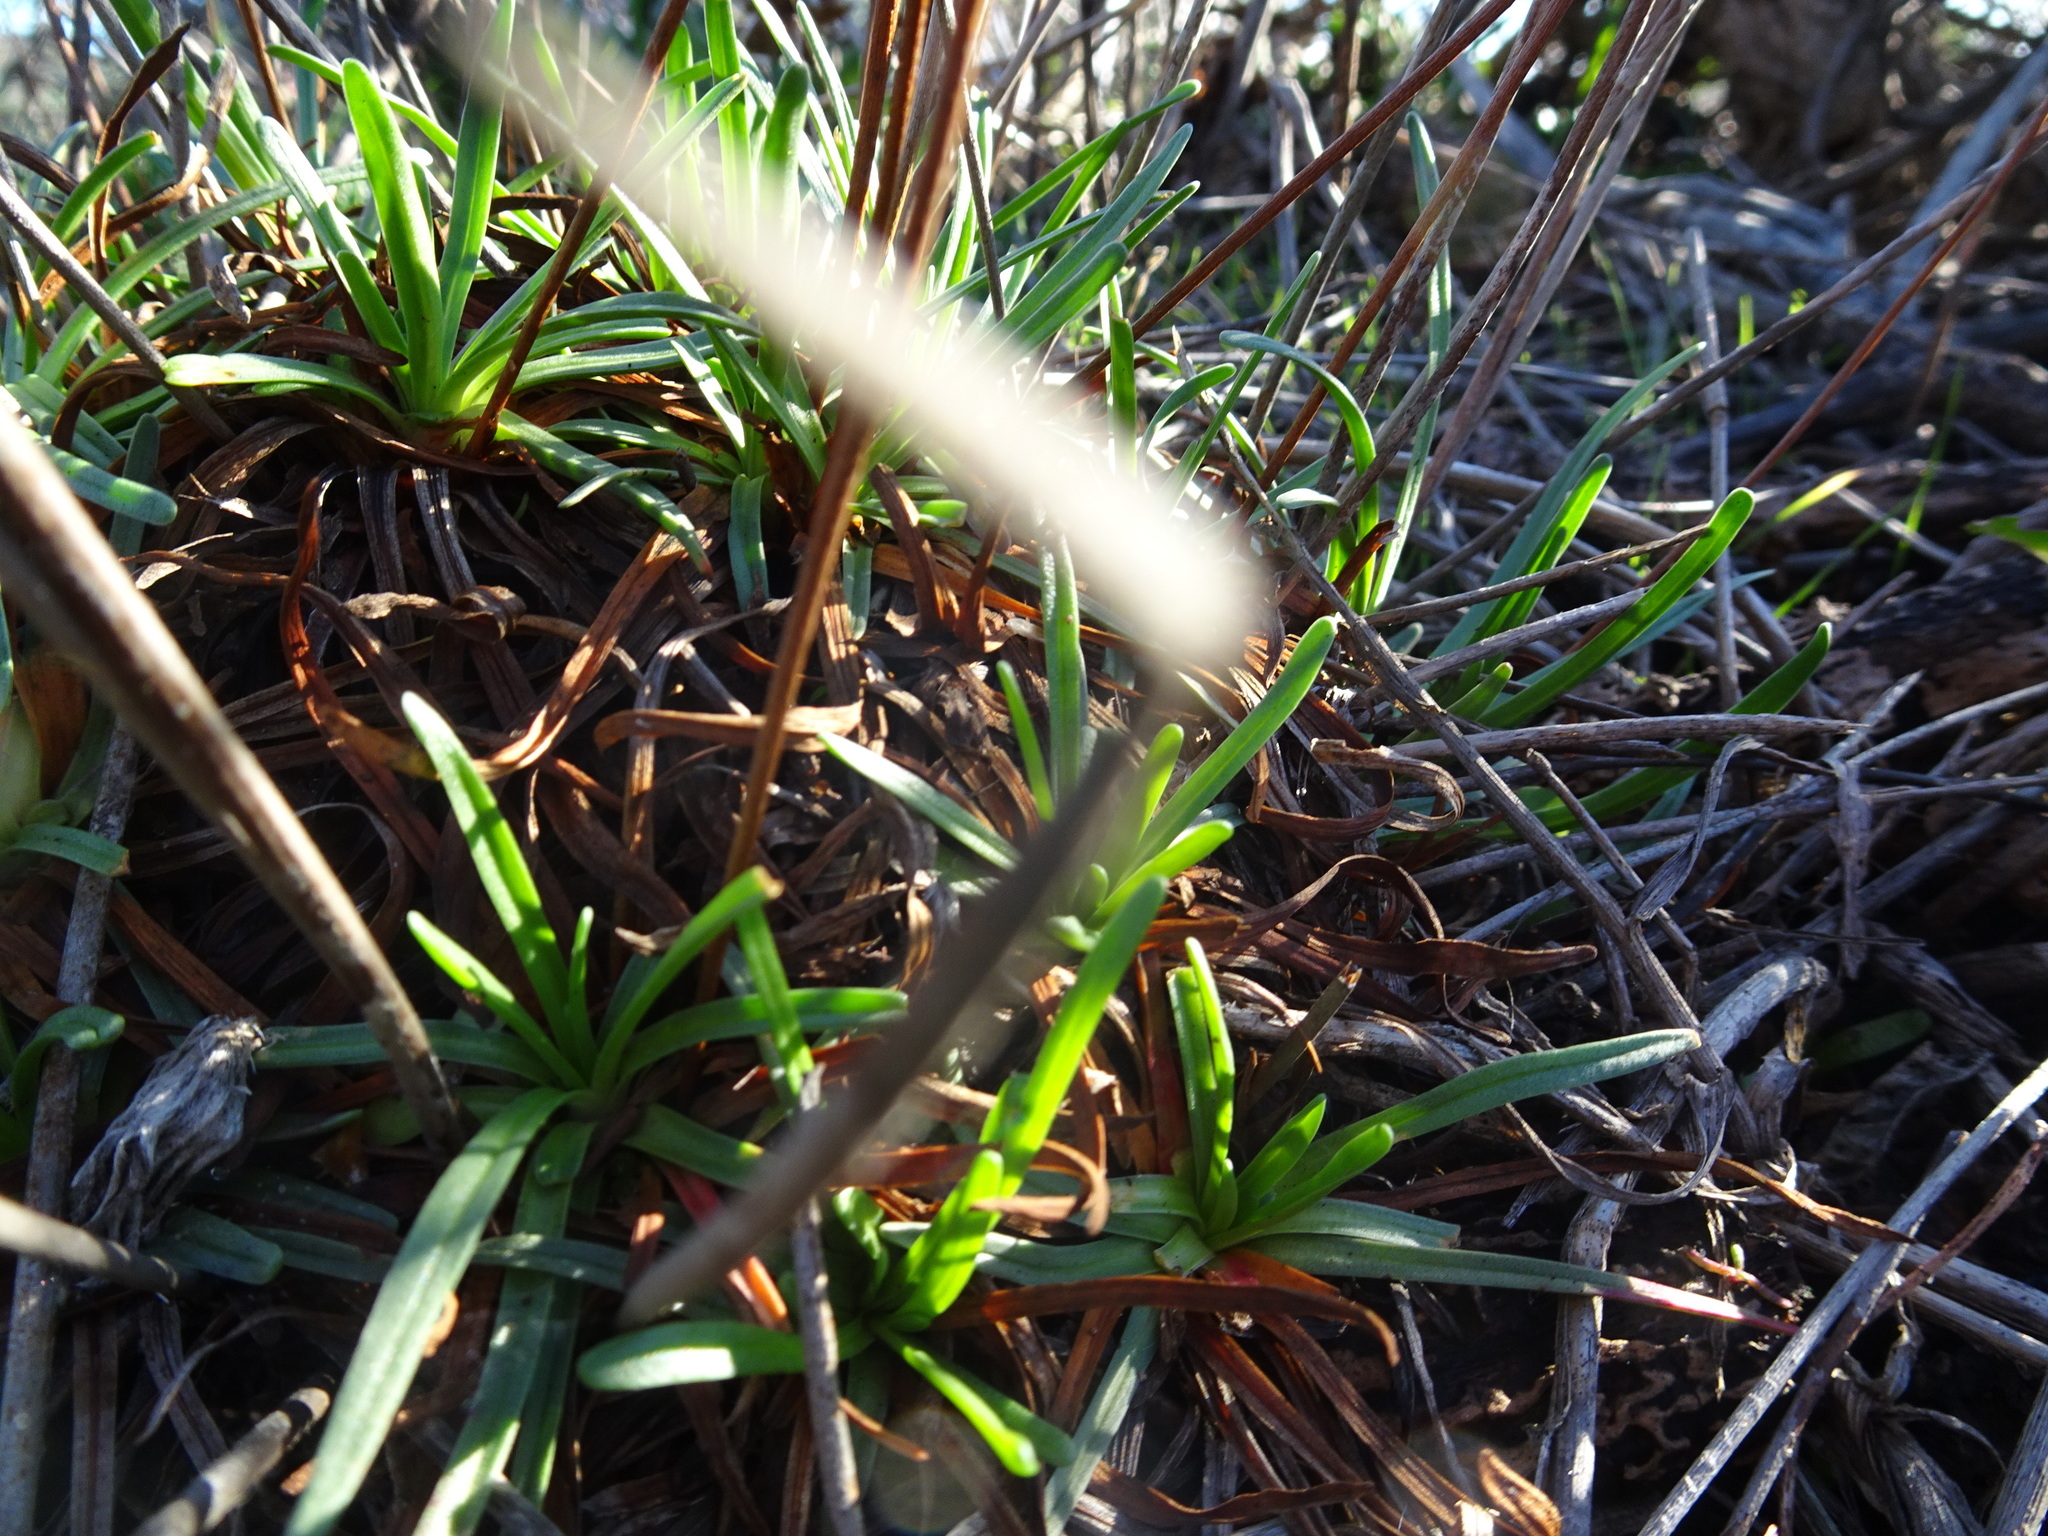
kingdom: Plantae
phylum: Tracheophyta
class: Magnoliopsida
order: Caryophyllales
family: Plumbaginaceae
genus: Armeria
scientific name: Armeria maritima
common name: Thrift
